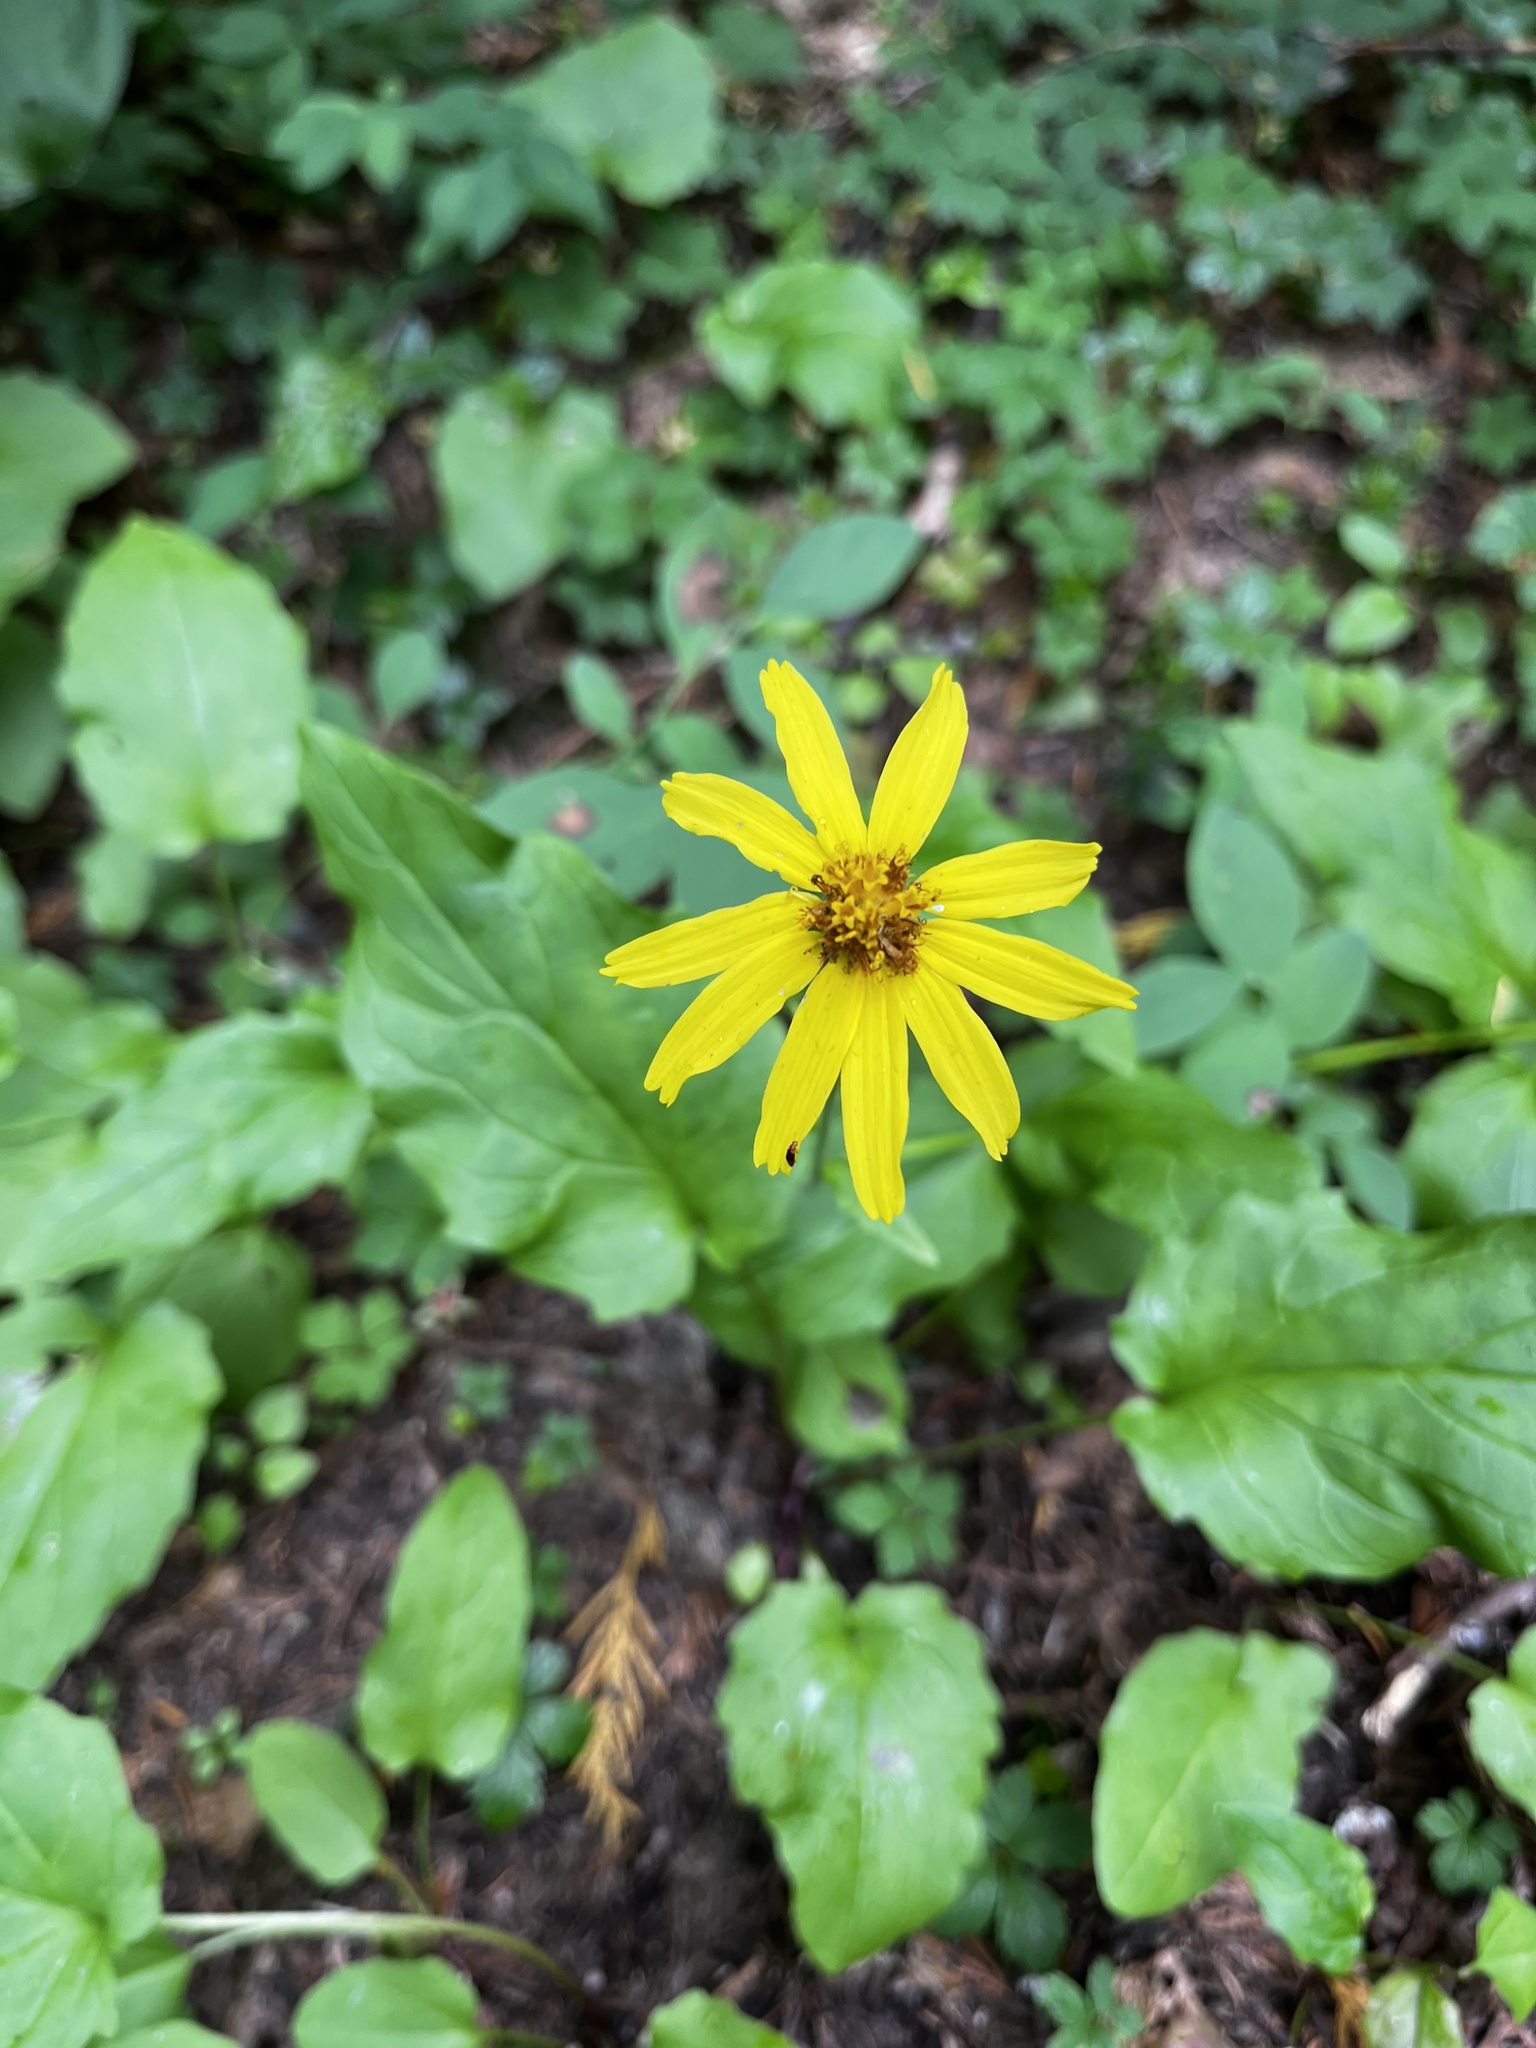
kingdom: Plantae
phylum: Tracheophyta
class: Magnoliopsida
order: Asterales
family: Asteraceae
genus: Arnica
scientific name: Arnica latifolia
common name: Arnica
